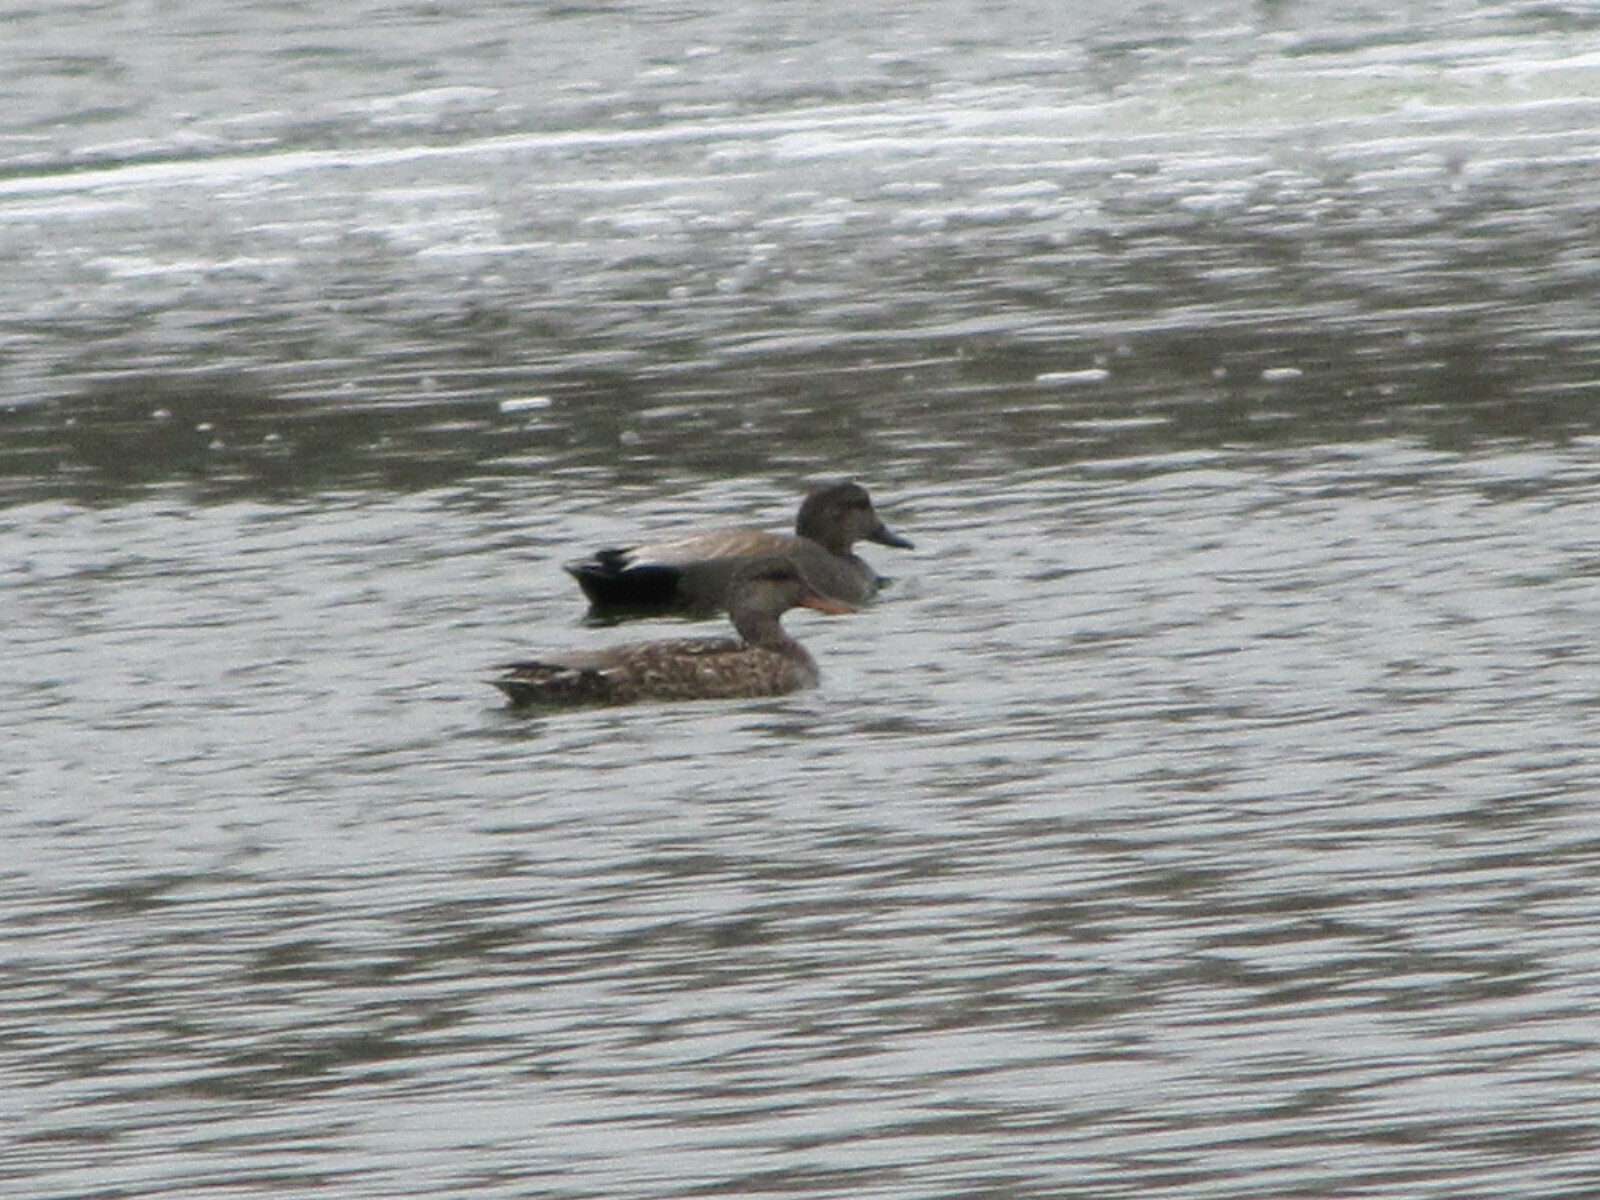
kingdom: Animalia
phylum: Chordata
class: Aves
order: Anseriformes
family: Anatidae
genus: Mareca
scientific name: Mareca strepera
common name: Gadwall
